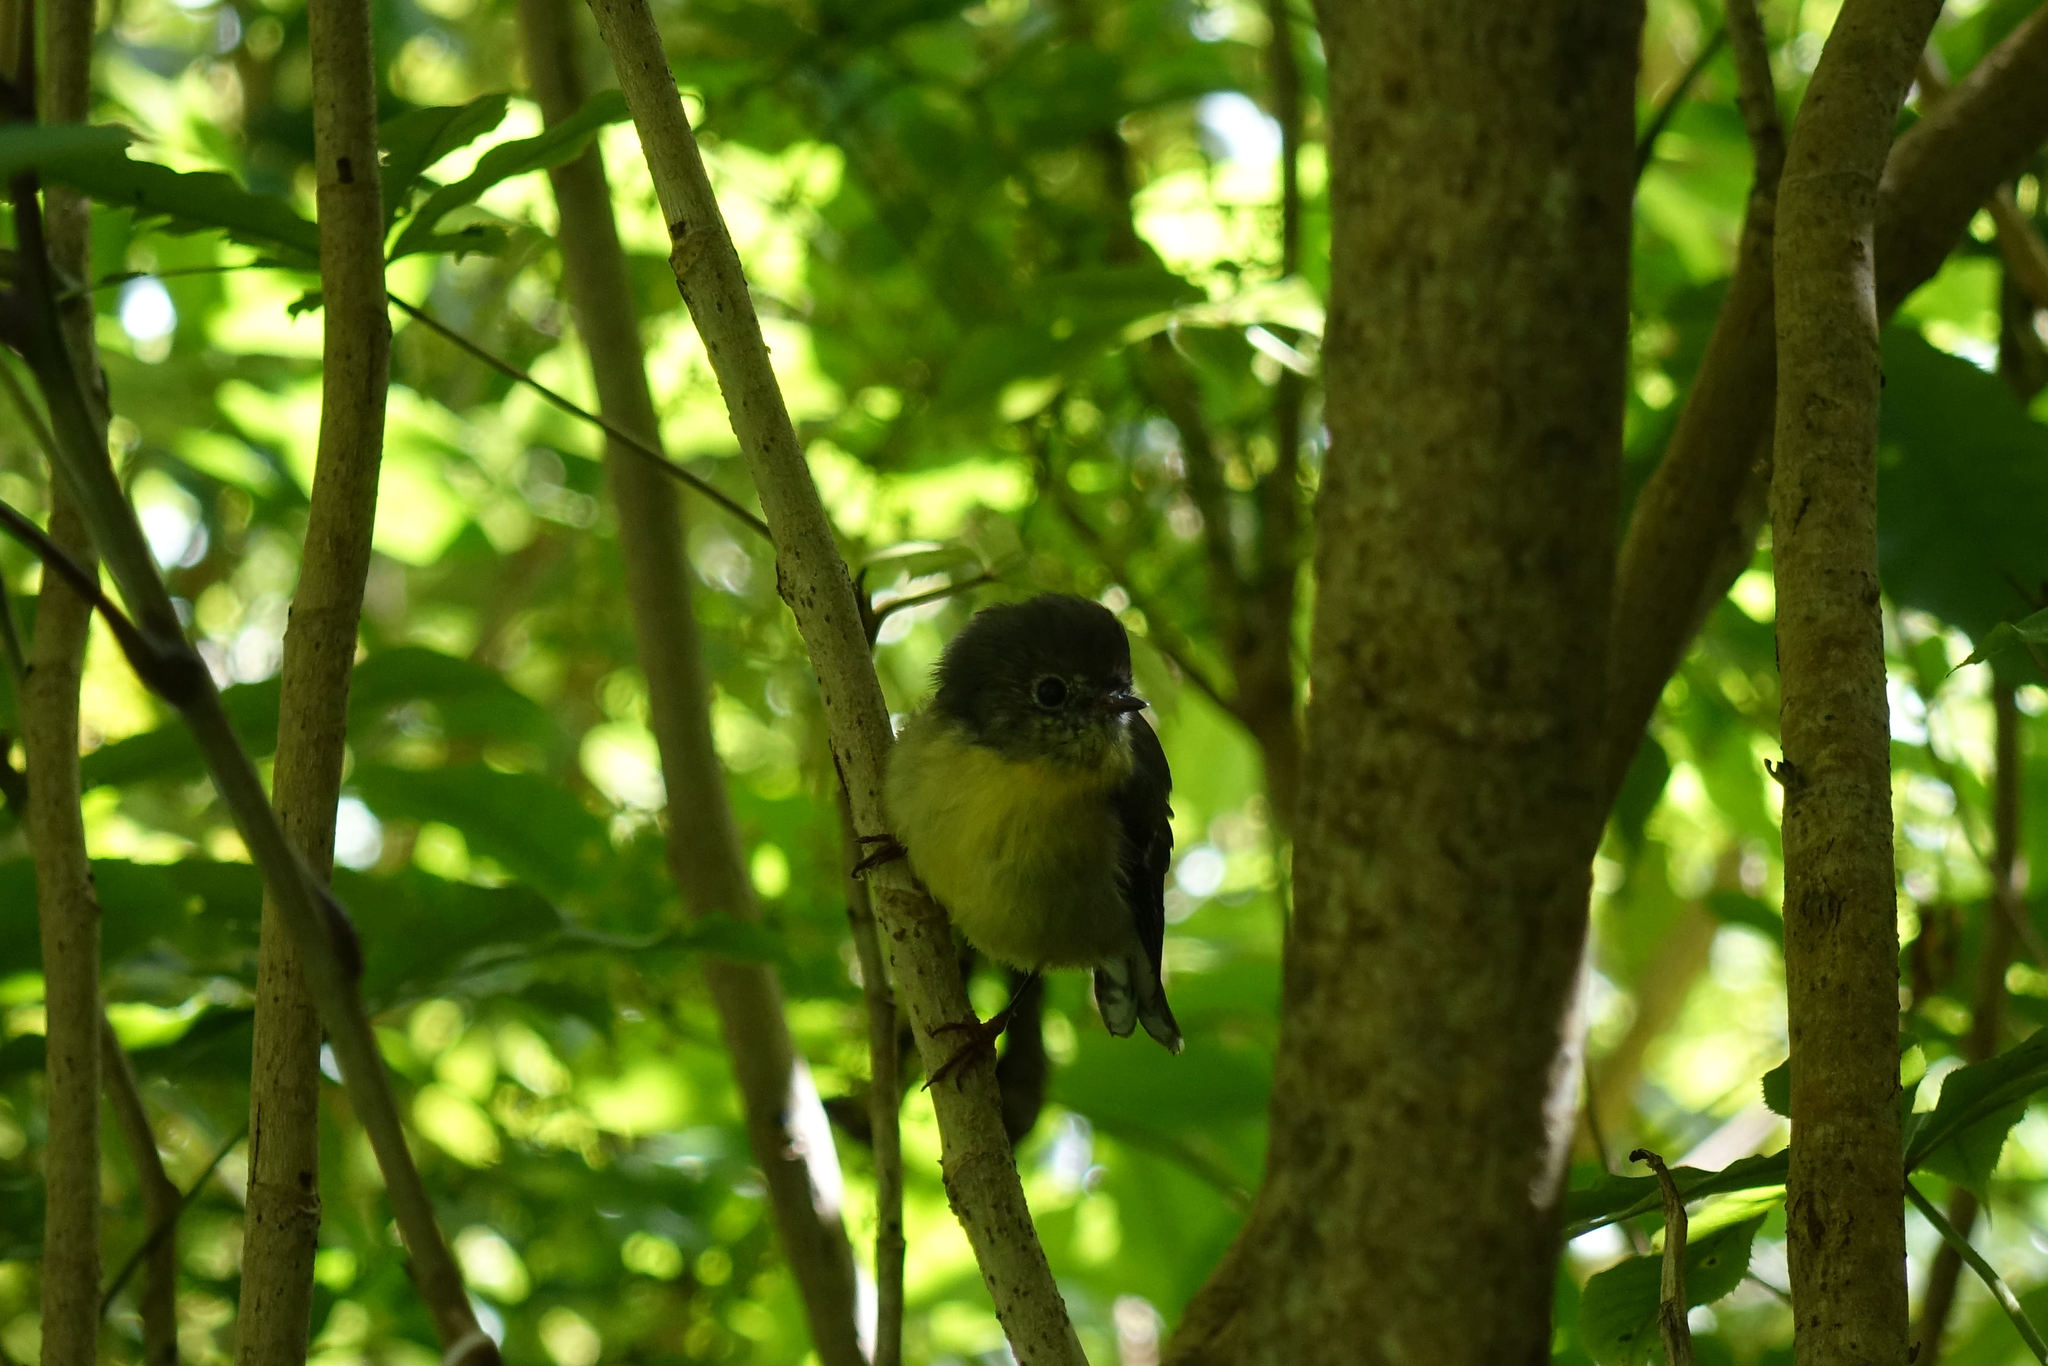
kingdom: Animalia
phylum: Chordata
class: Aves
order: Passeriformes
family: Petroicidae
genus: Petroica
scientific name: Petroica macrocephala
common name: Tomtit
